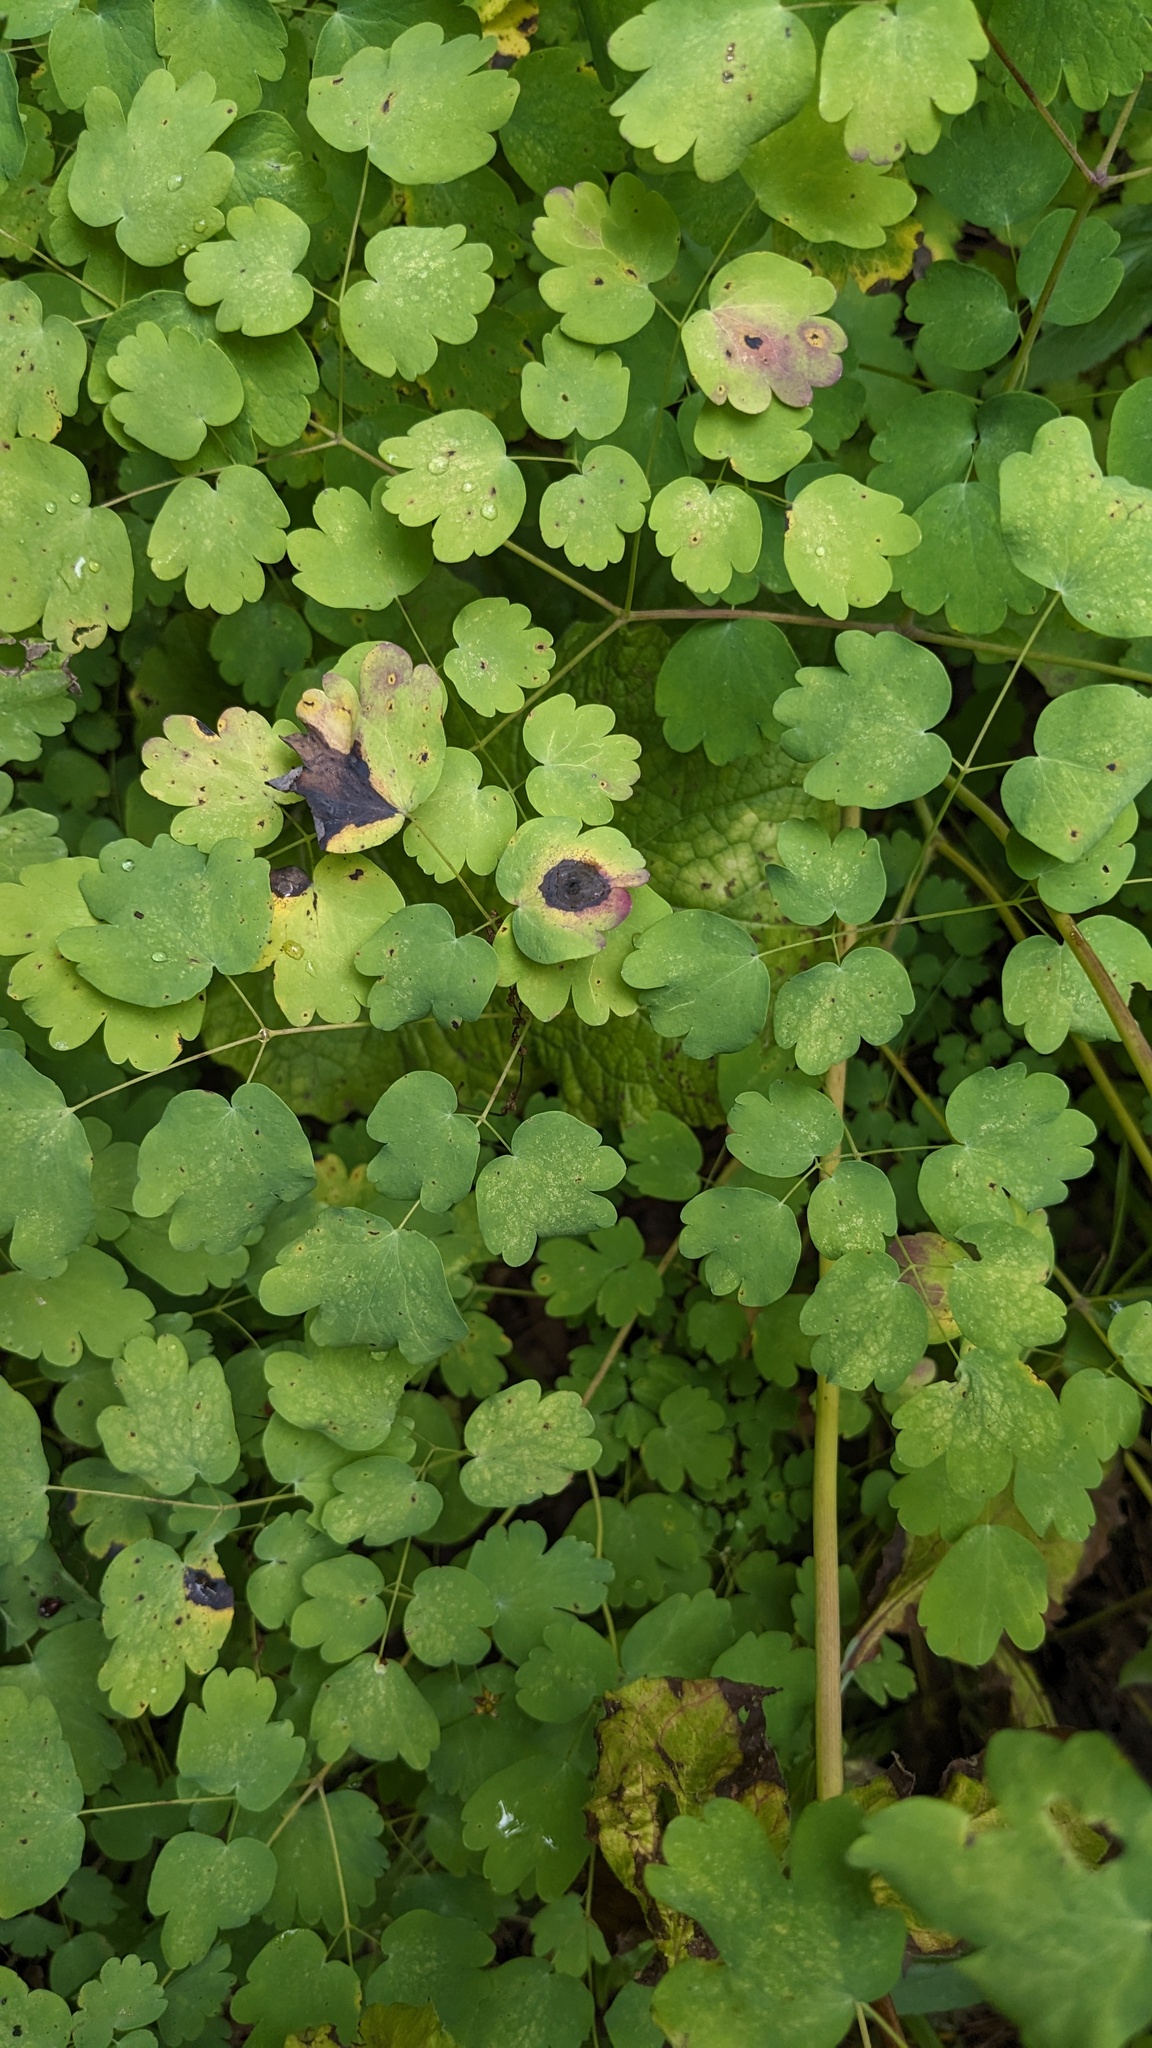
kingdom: Plantae
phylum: Tracheophyta
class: Magnoliopsida
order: Ranunculales
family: Ranunculaceae
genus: Thalictrum
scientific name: Thalictrum dioicum
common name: Early meadow-rue
